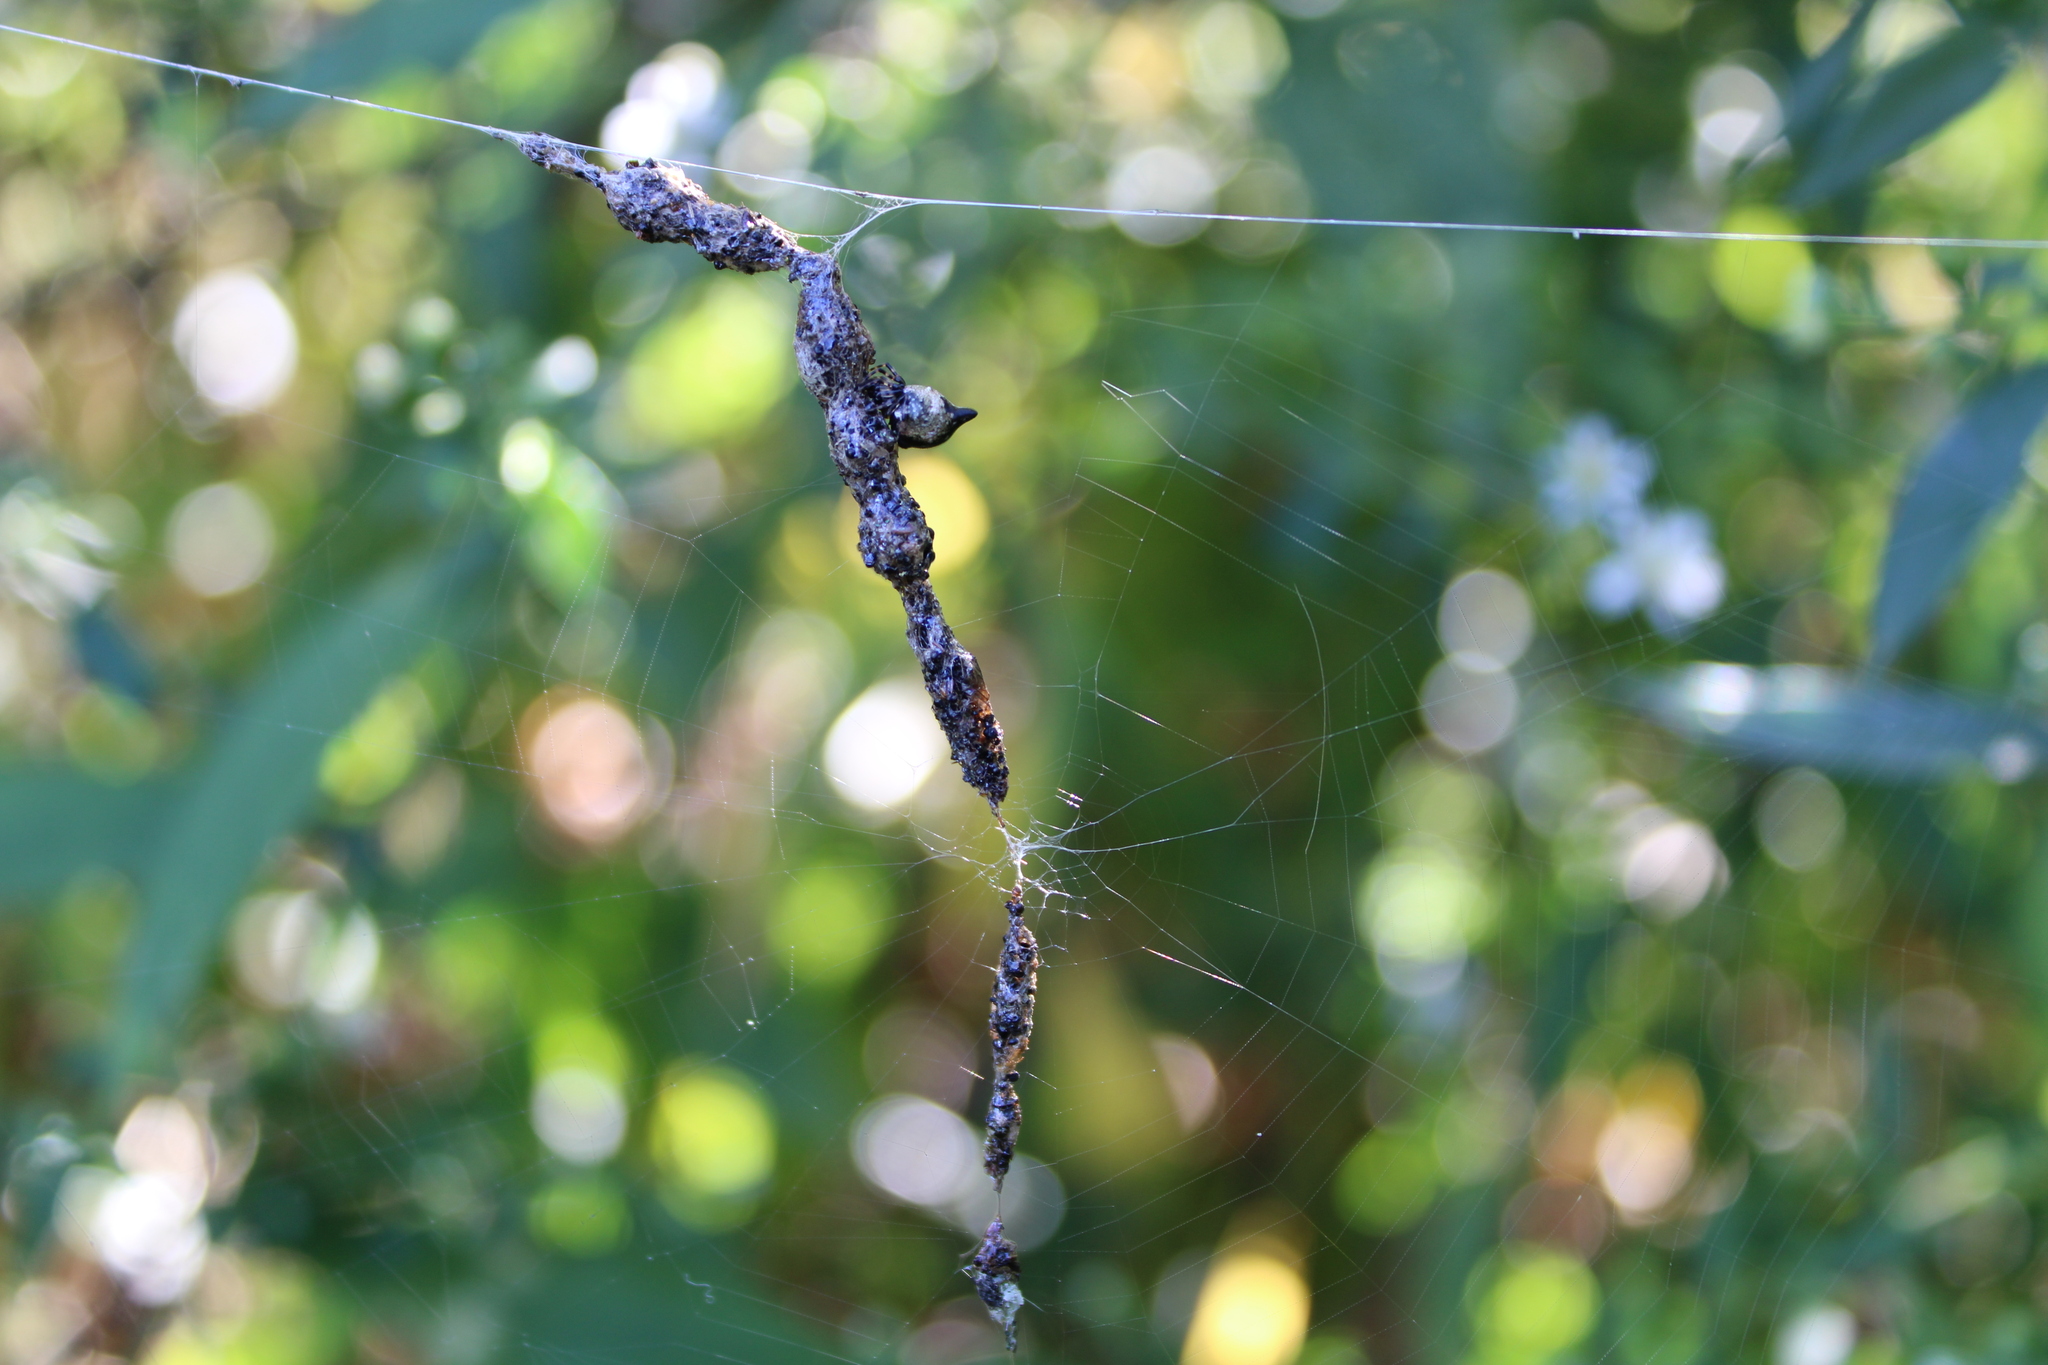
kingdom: Animalia
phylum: Arthropoda
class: Arachnida
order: Araneae
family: Araneidae
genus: Cyclosa
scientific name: Cyclosa turbinata
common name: Orb weavers
